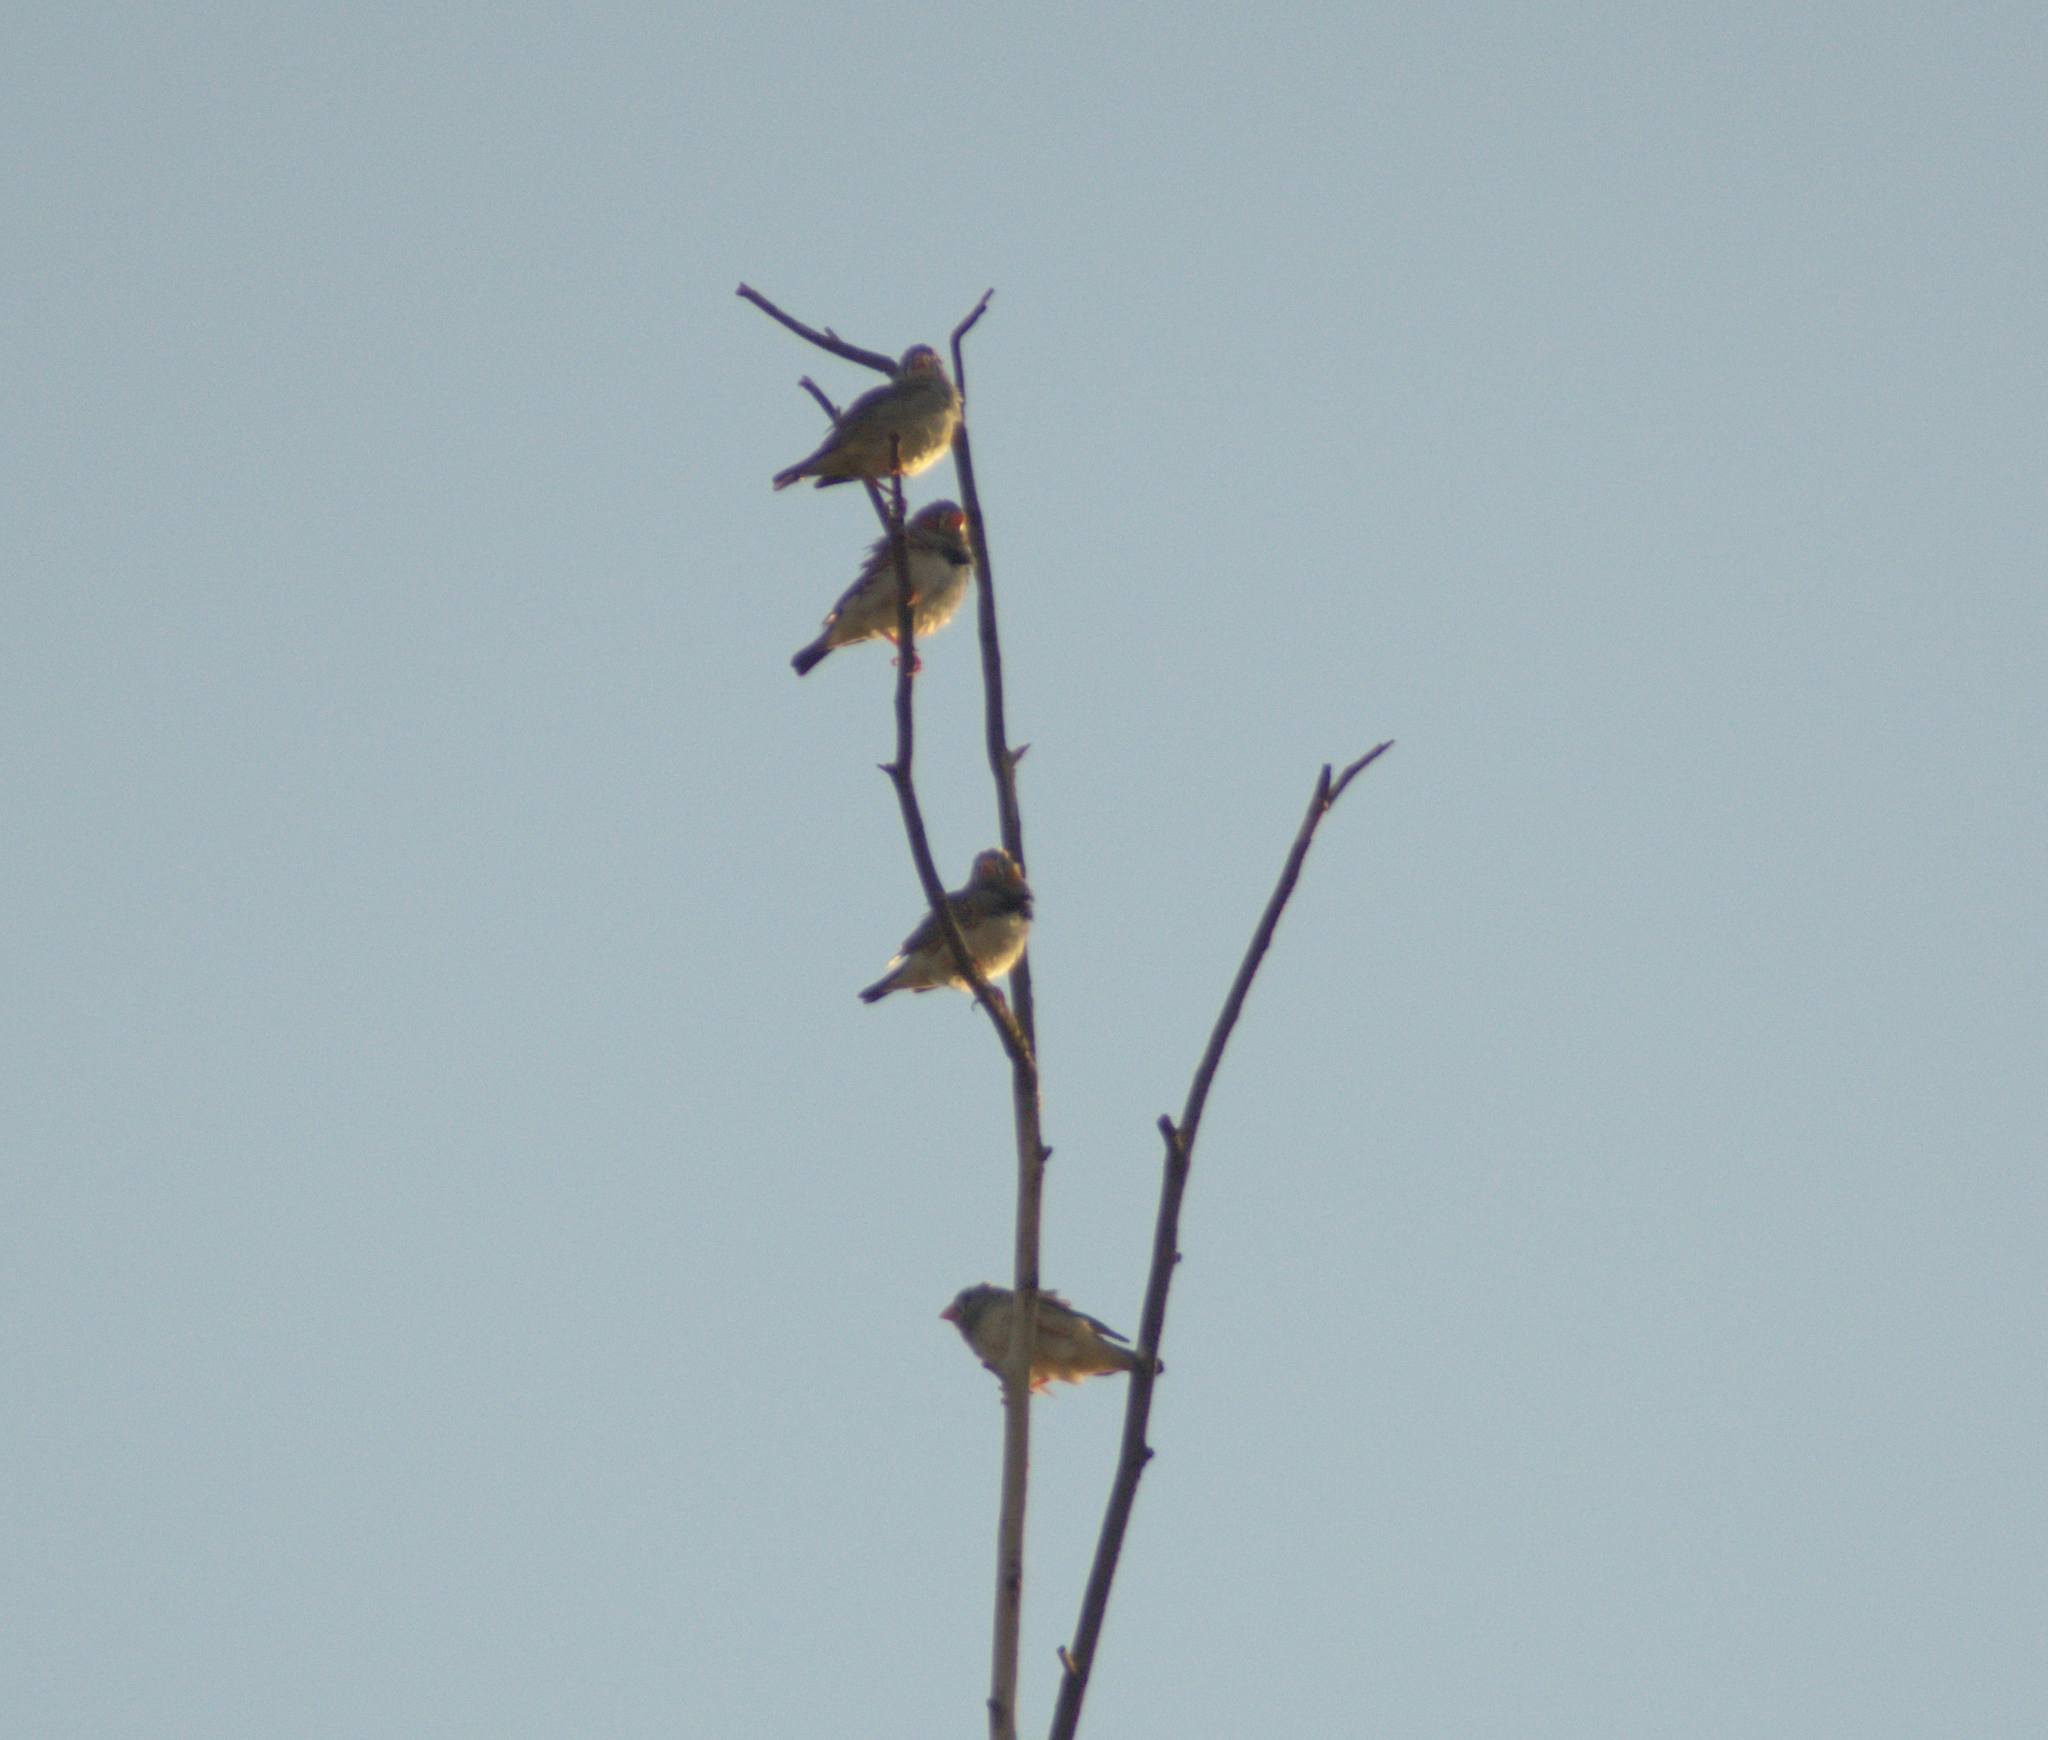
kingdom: Animalia
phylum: Chordata
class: Aves
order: Passeriformes
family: Estrildidae
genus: Taeniopygia
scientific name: Taeniopygia guttata
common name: Zebra finch
